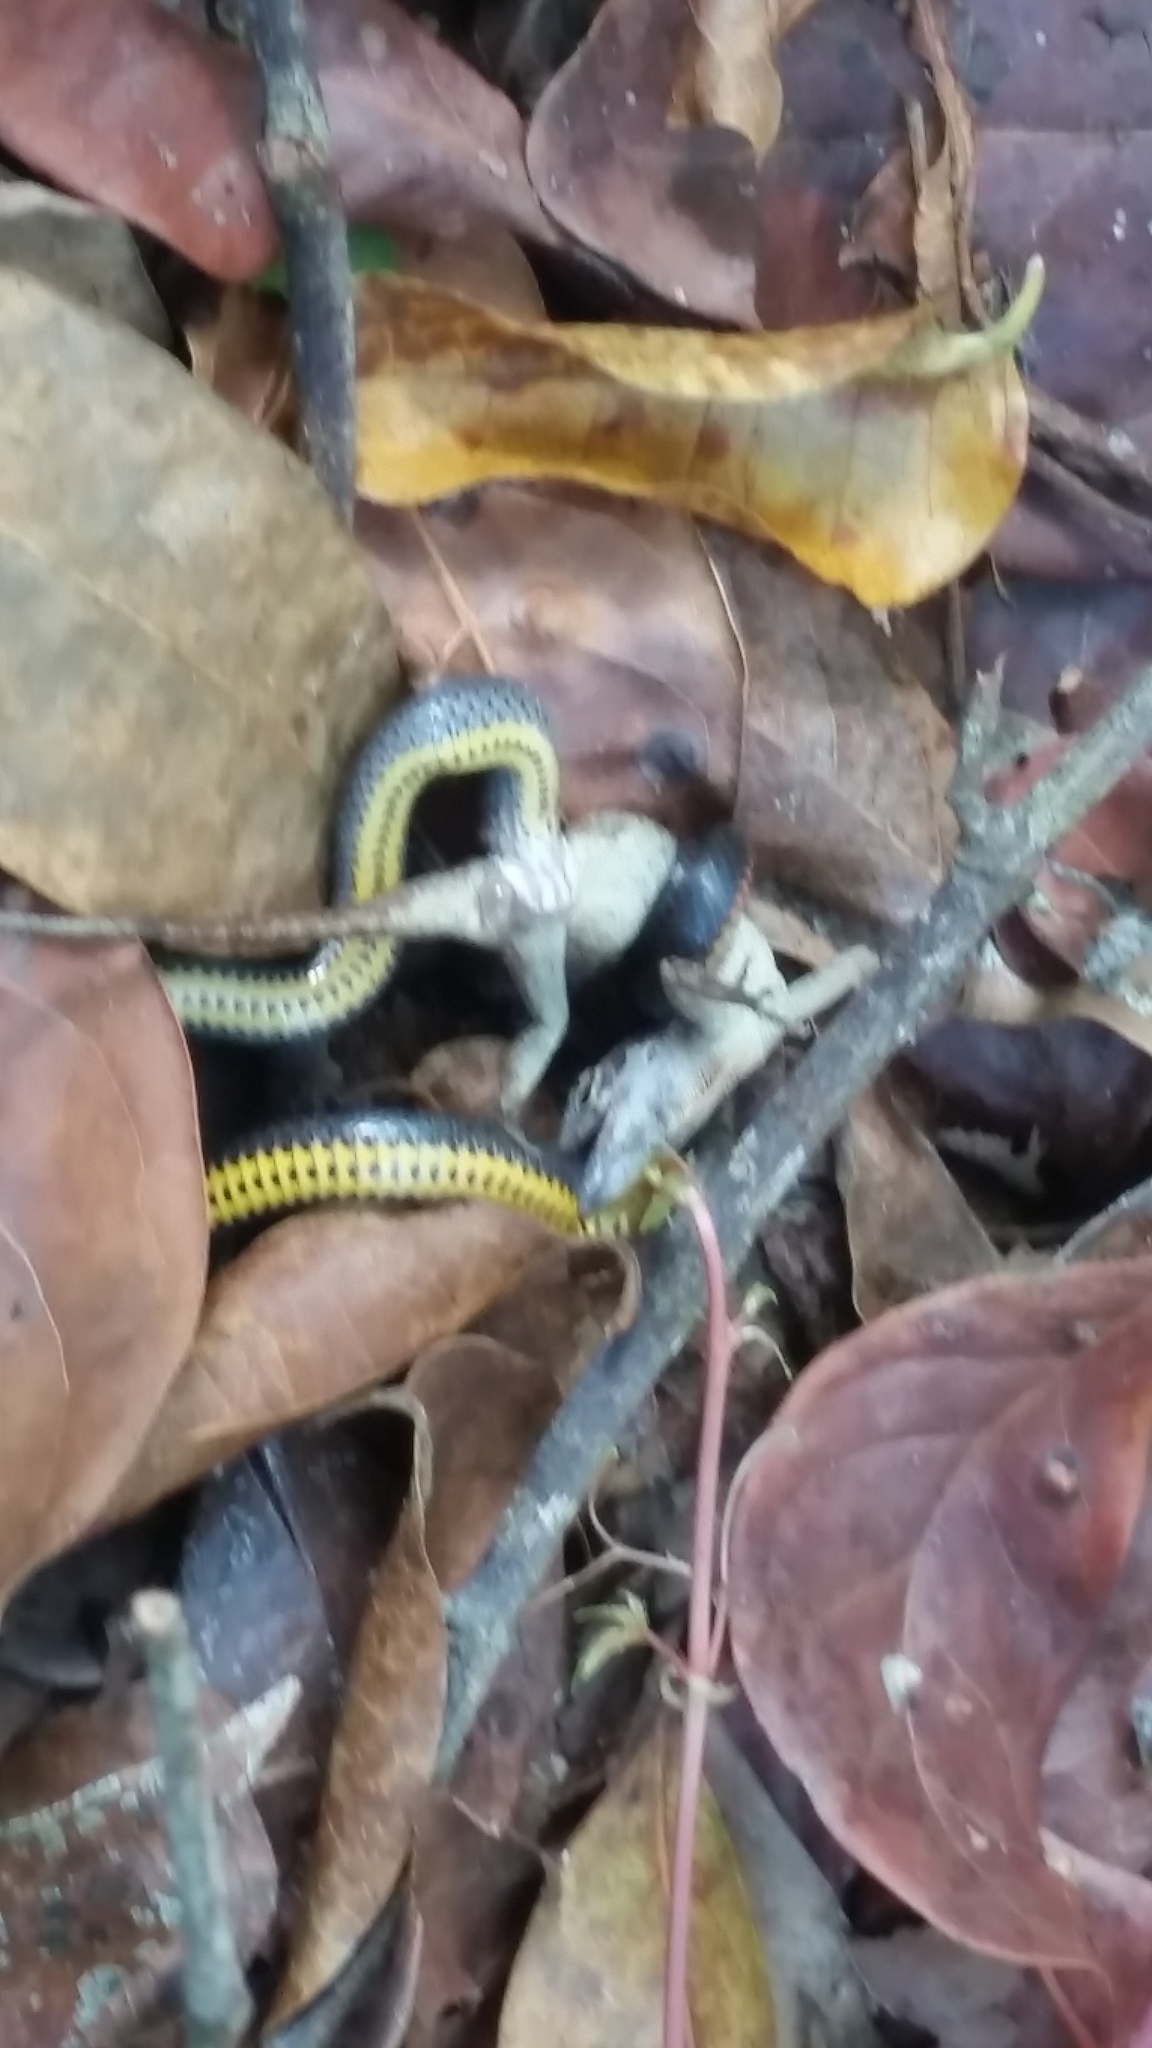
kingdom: Animalia
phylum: Chordata
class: Squamata
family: Colubridae
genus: Diadophis
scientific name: Diadophis punctatus
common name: Ringneck snake
